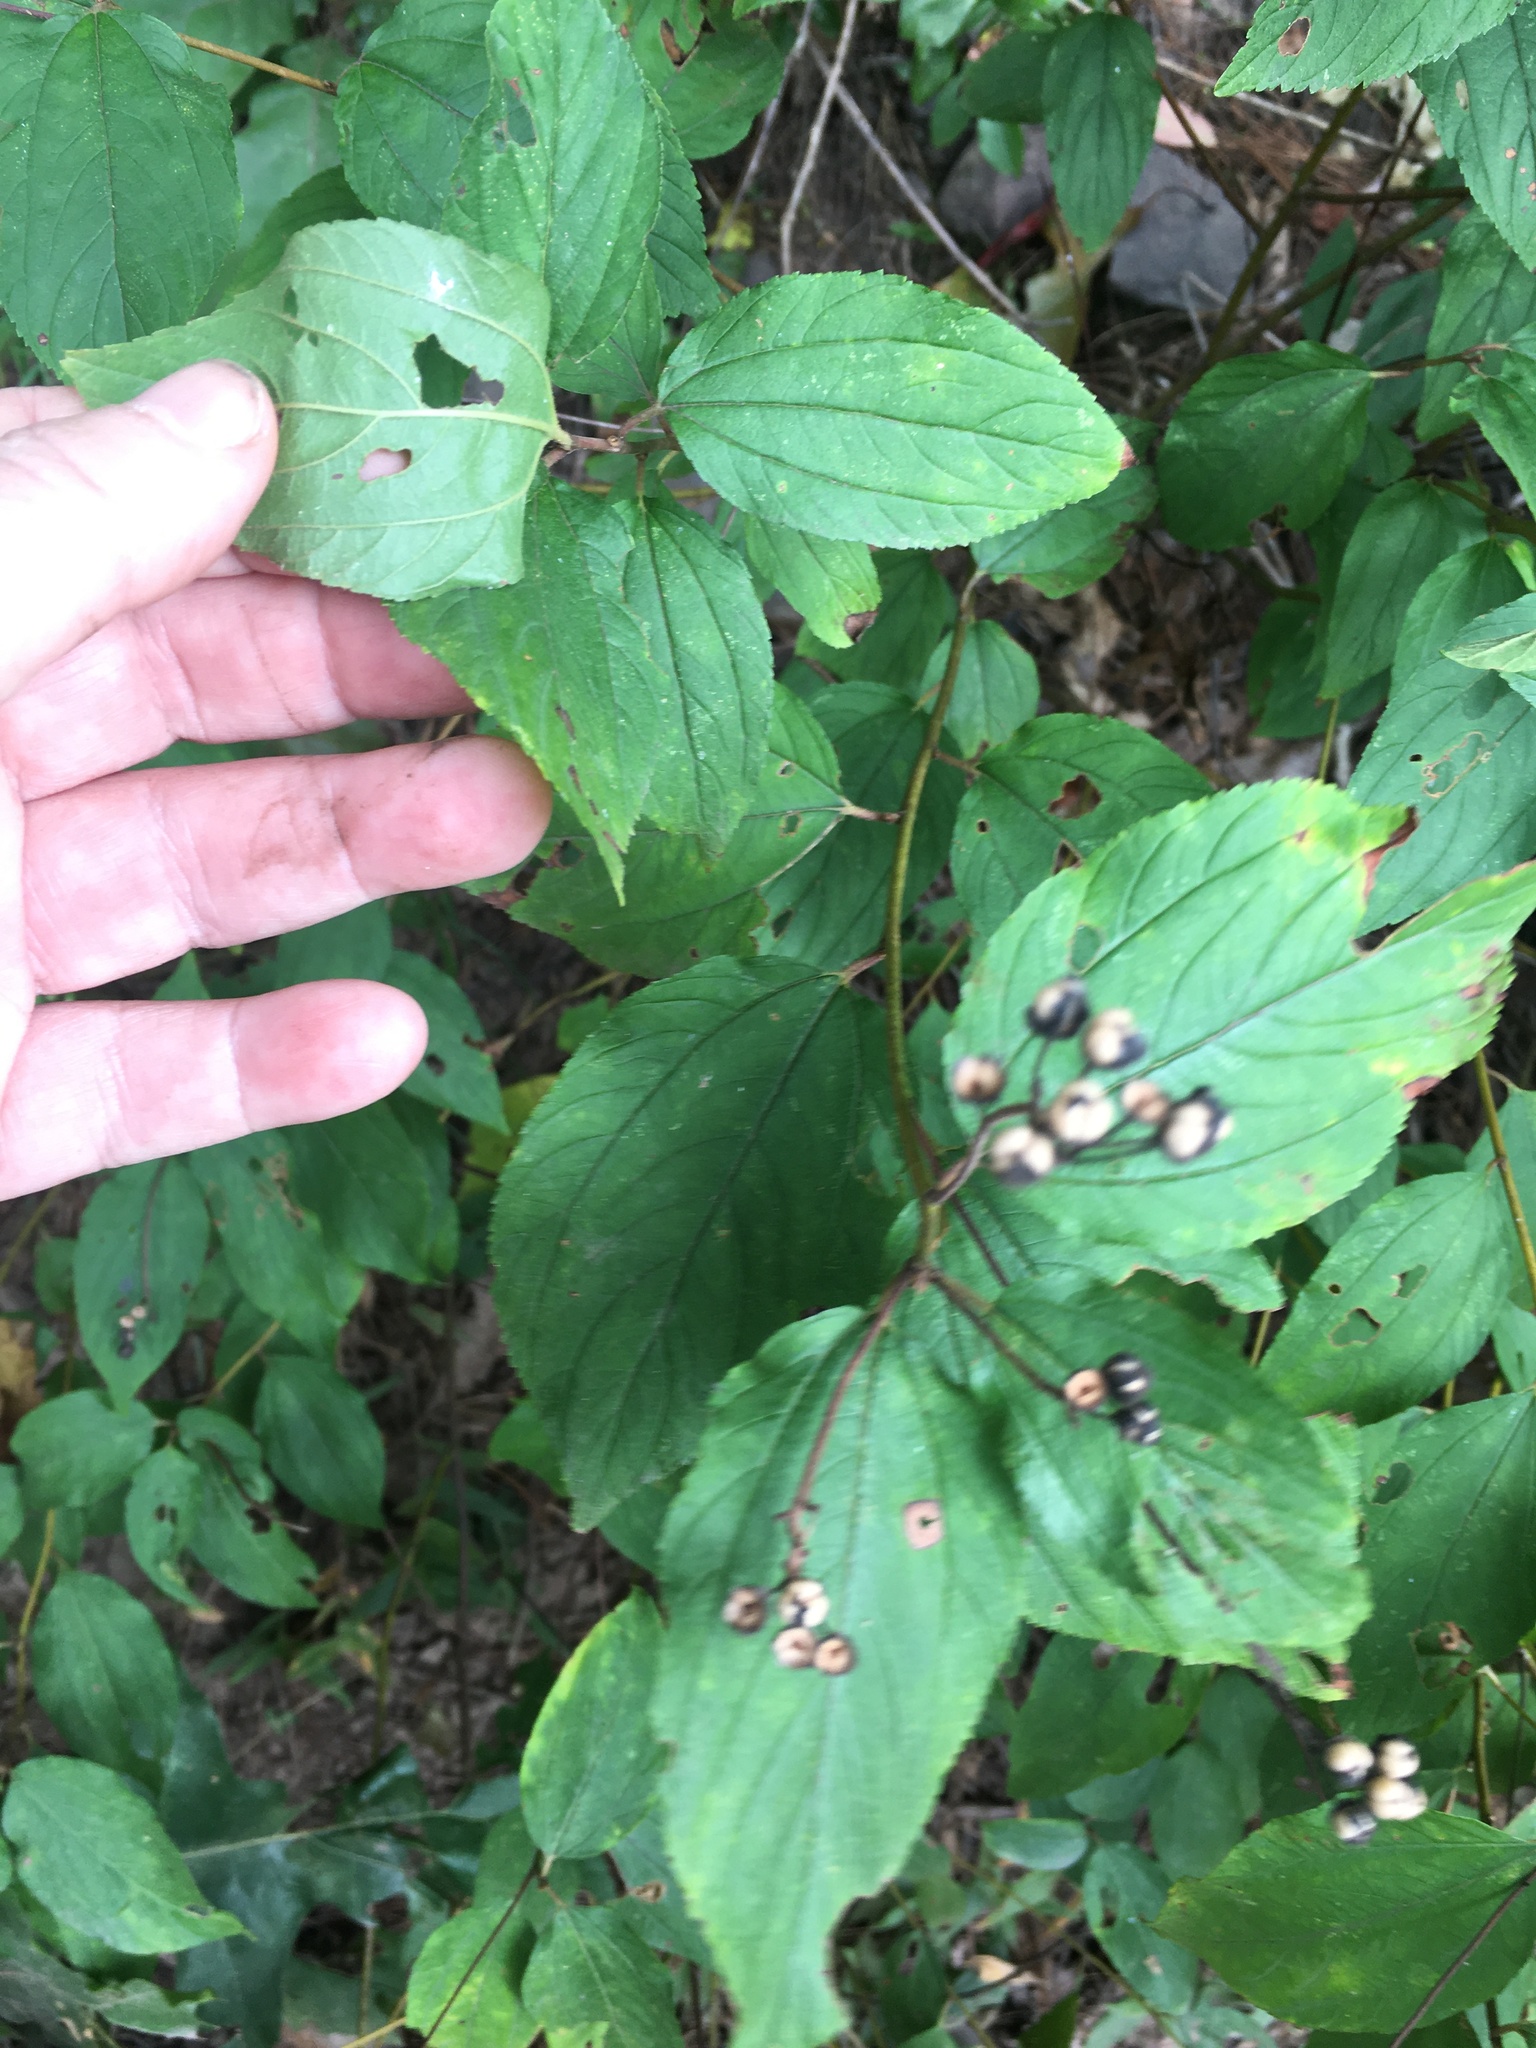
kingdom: Plantae
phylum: Tracheophyta
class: Magnoliopsida
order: Rosales
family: Rhamnaceae
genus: Ceanothus
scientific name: Ceanothus americanus
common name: Redroot
